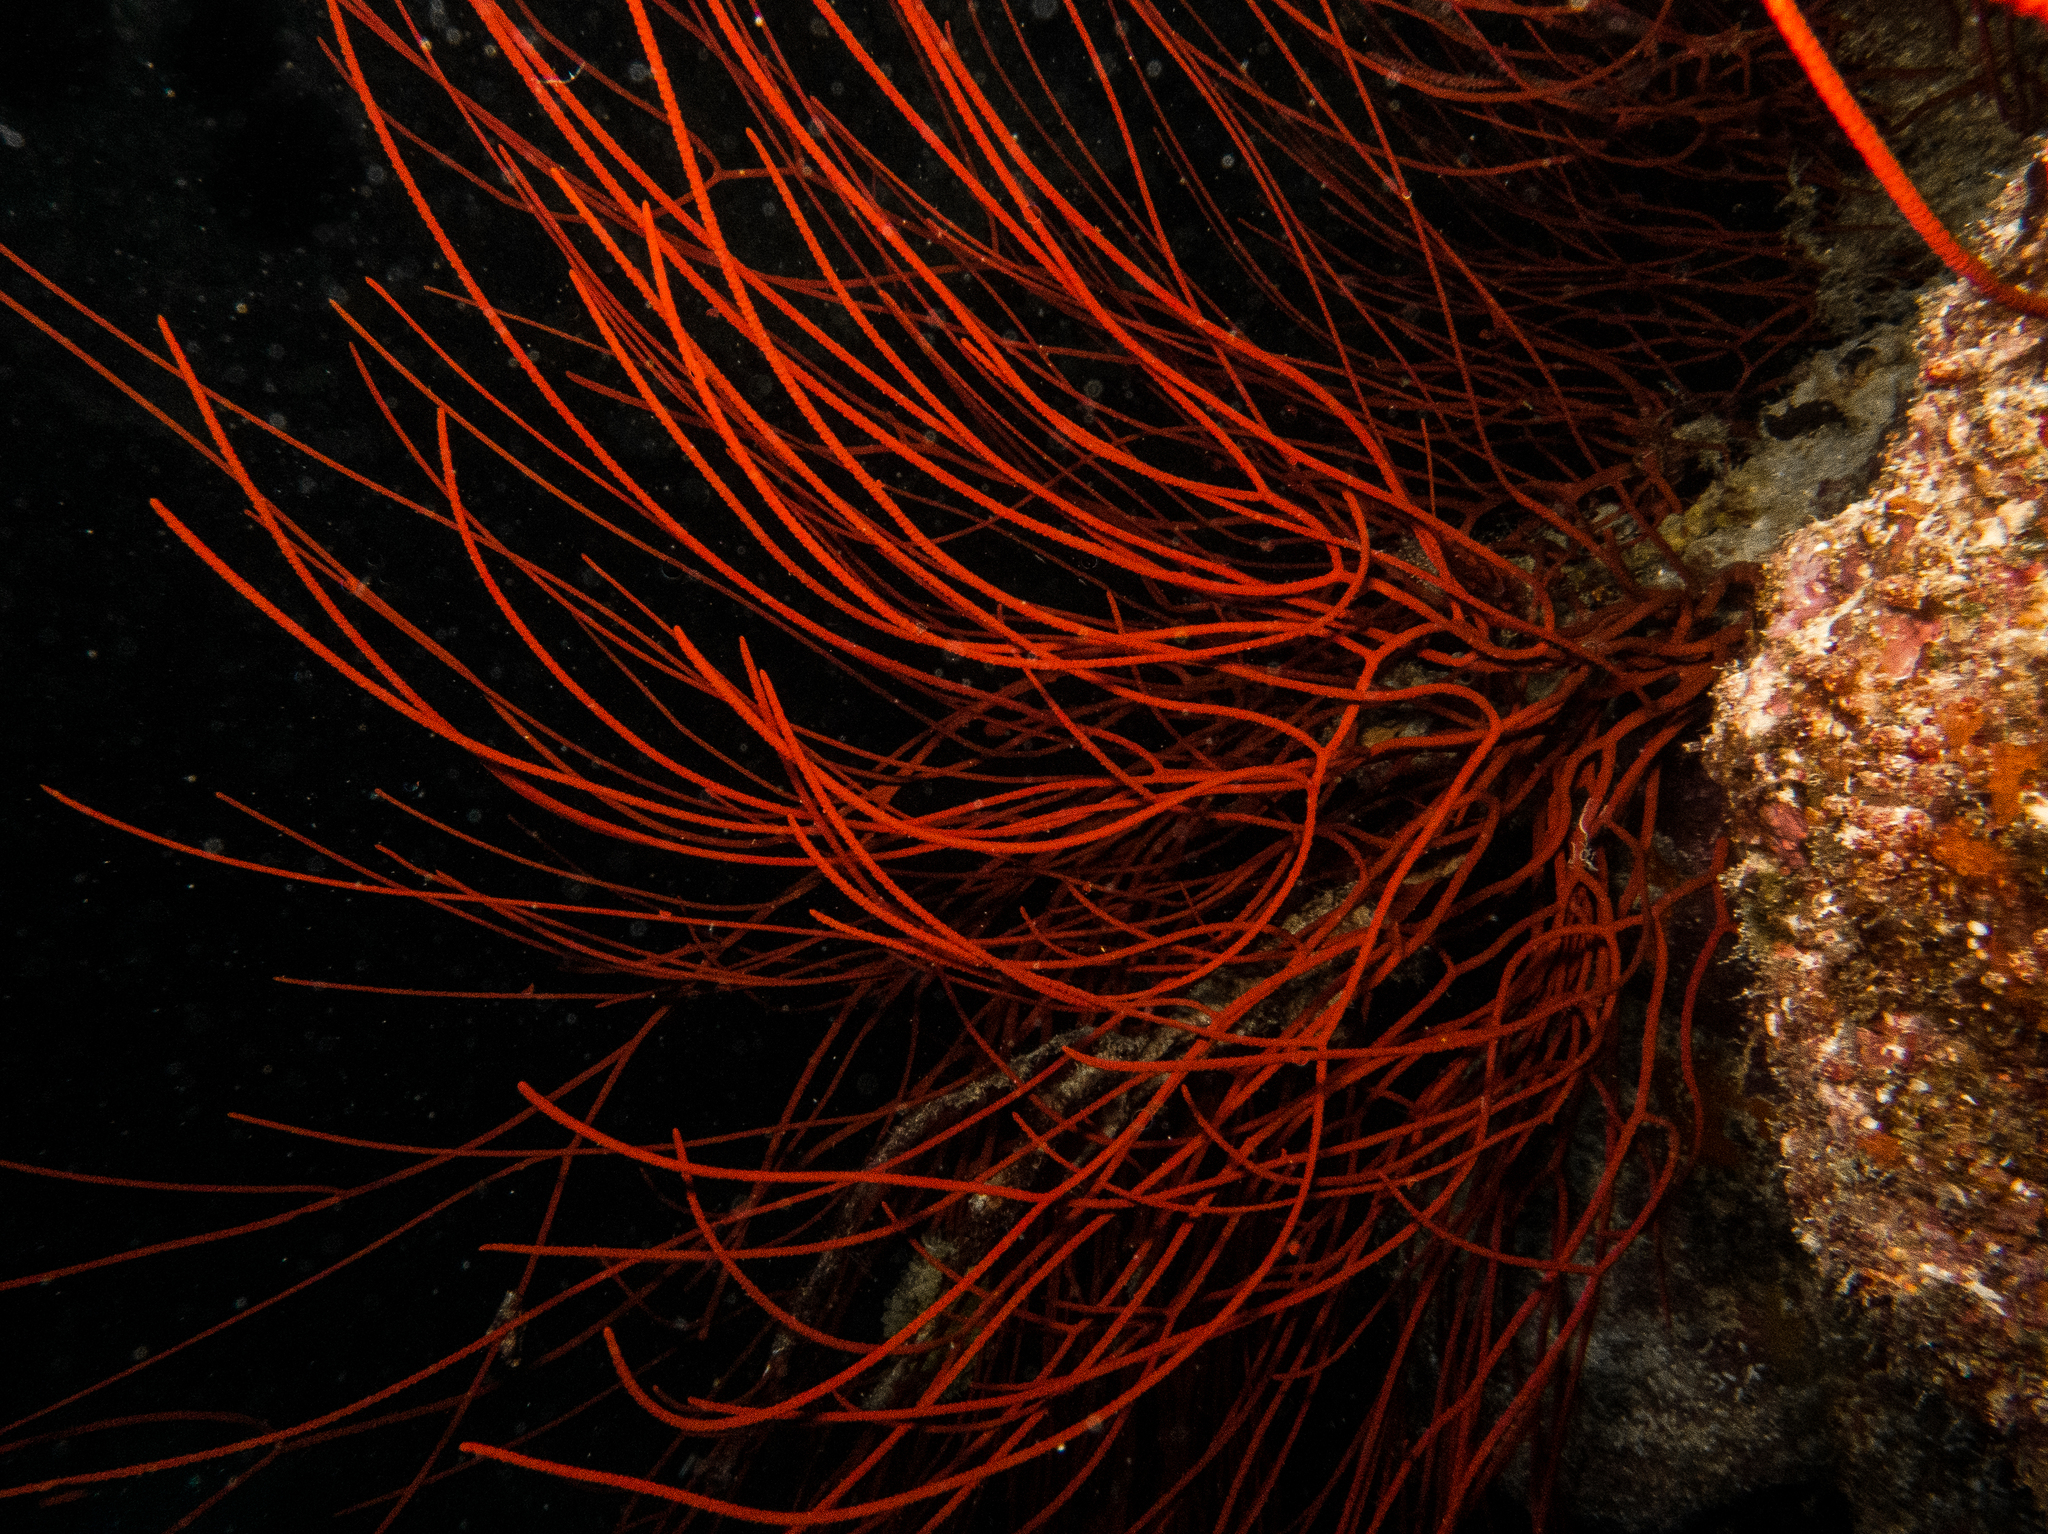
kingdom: Animalia
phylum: Cnidaria
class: Anthozoa
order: Scleralcyonacea
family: Ellisellidae
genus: Ellisella
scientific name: Ellisella ceratophyta
